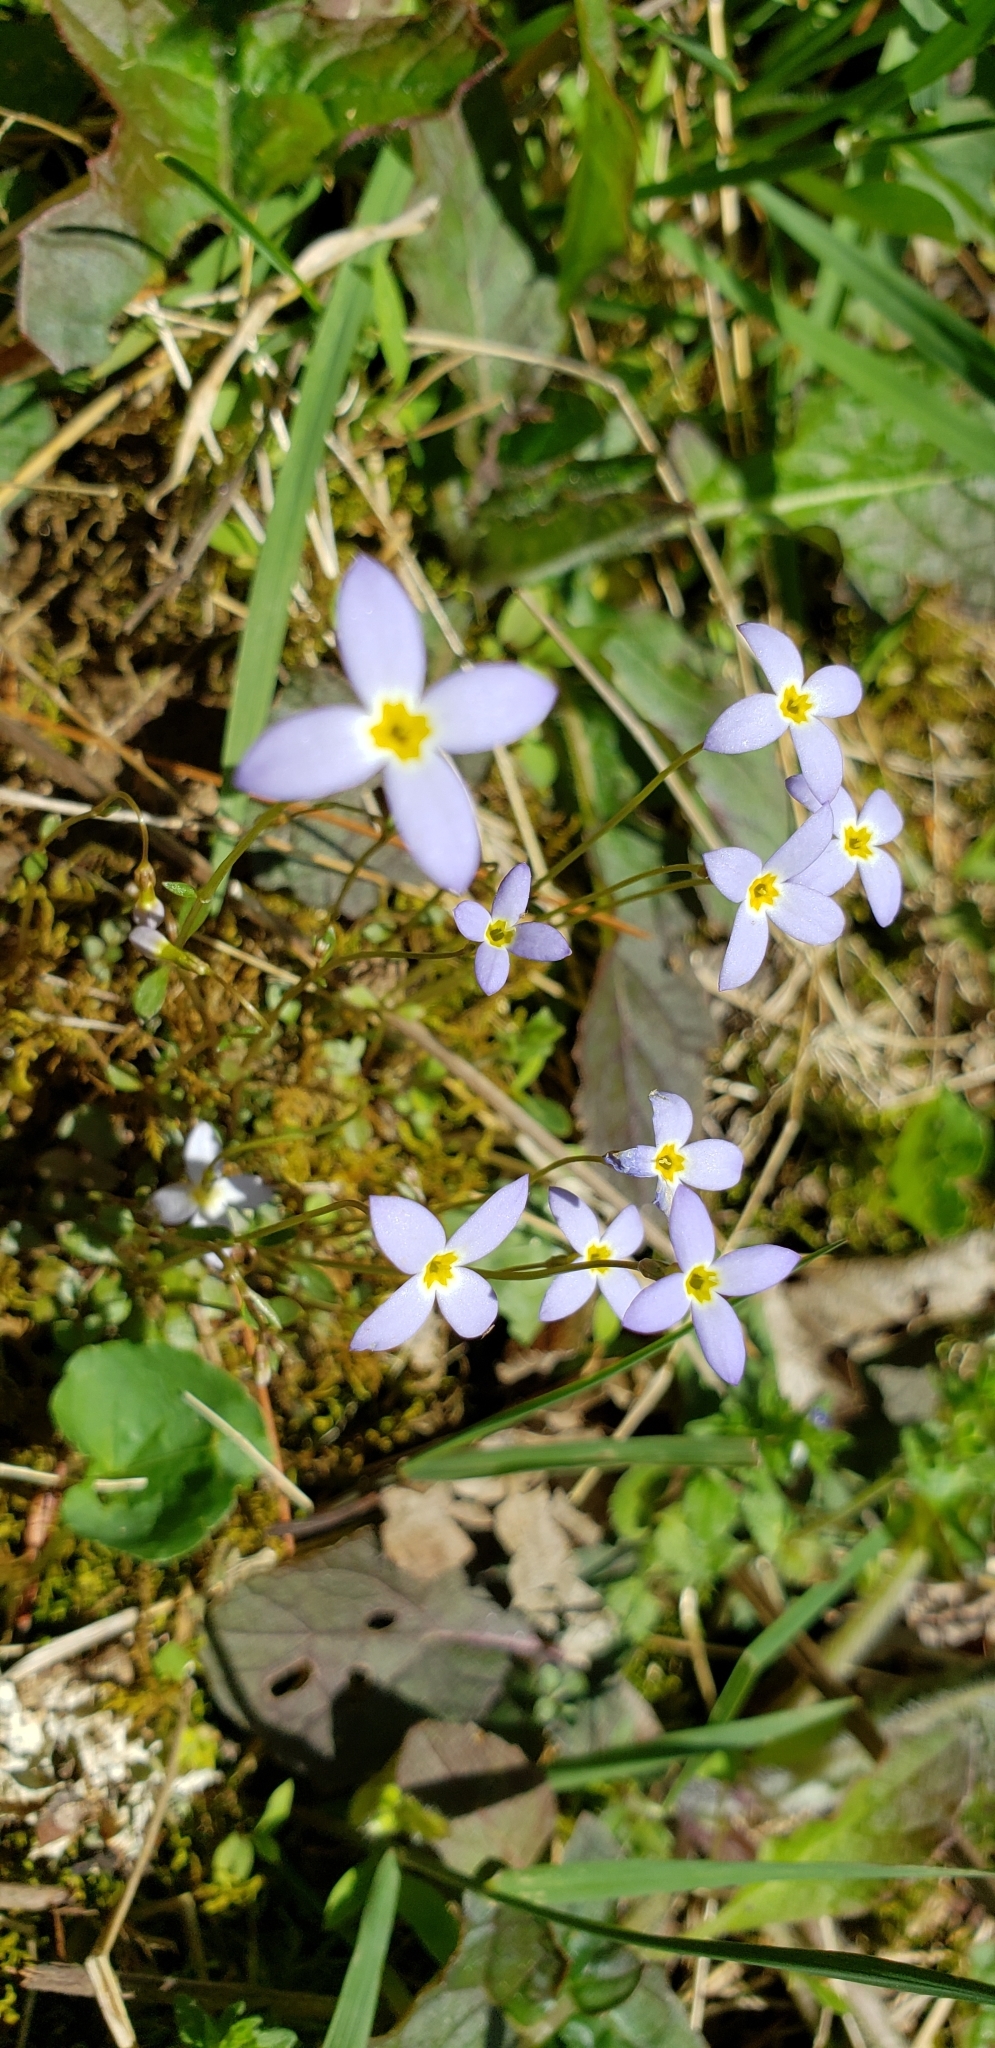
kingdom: Plantae
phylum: Tracheophyta
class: Magnoliopsida
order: Gentianales
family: Rubiaceae
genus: Houstonia
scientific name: Houstonia caerulea
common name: Bluets
